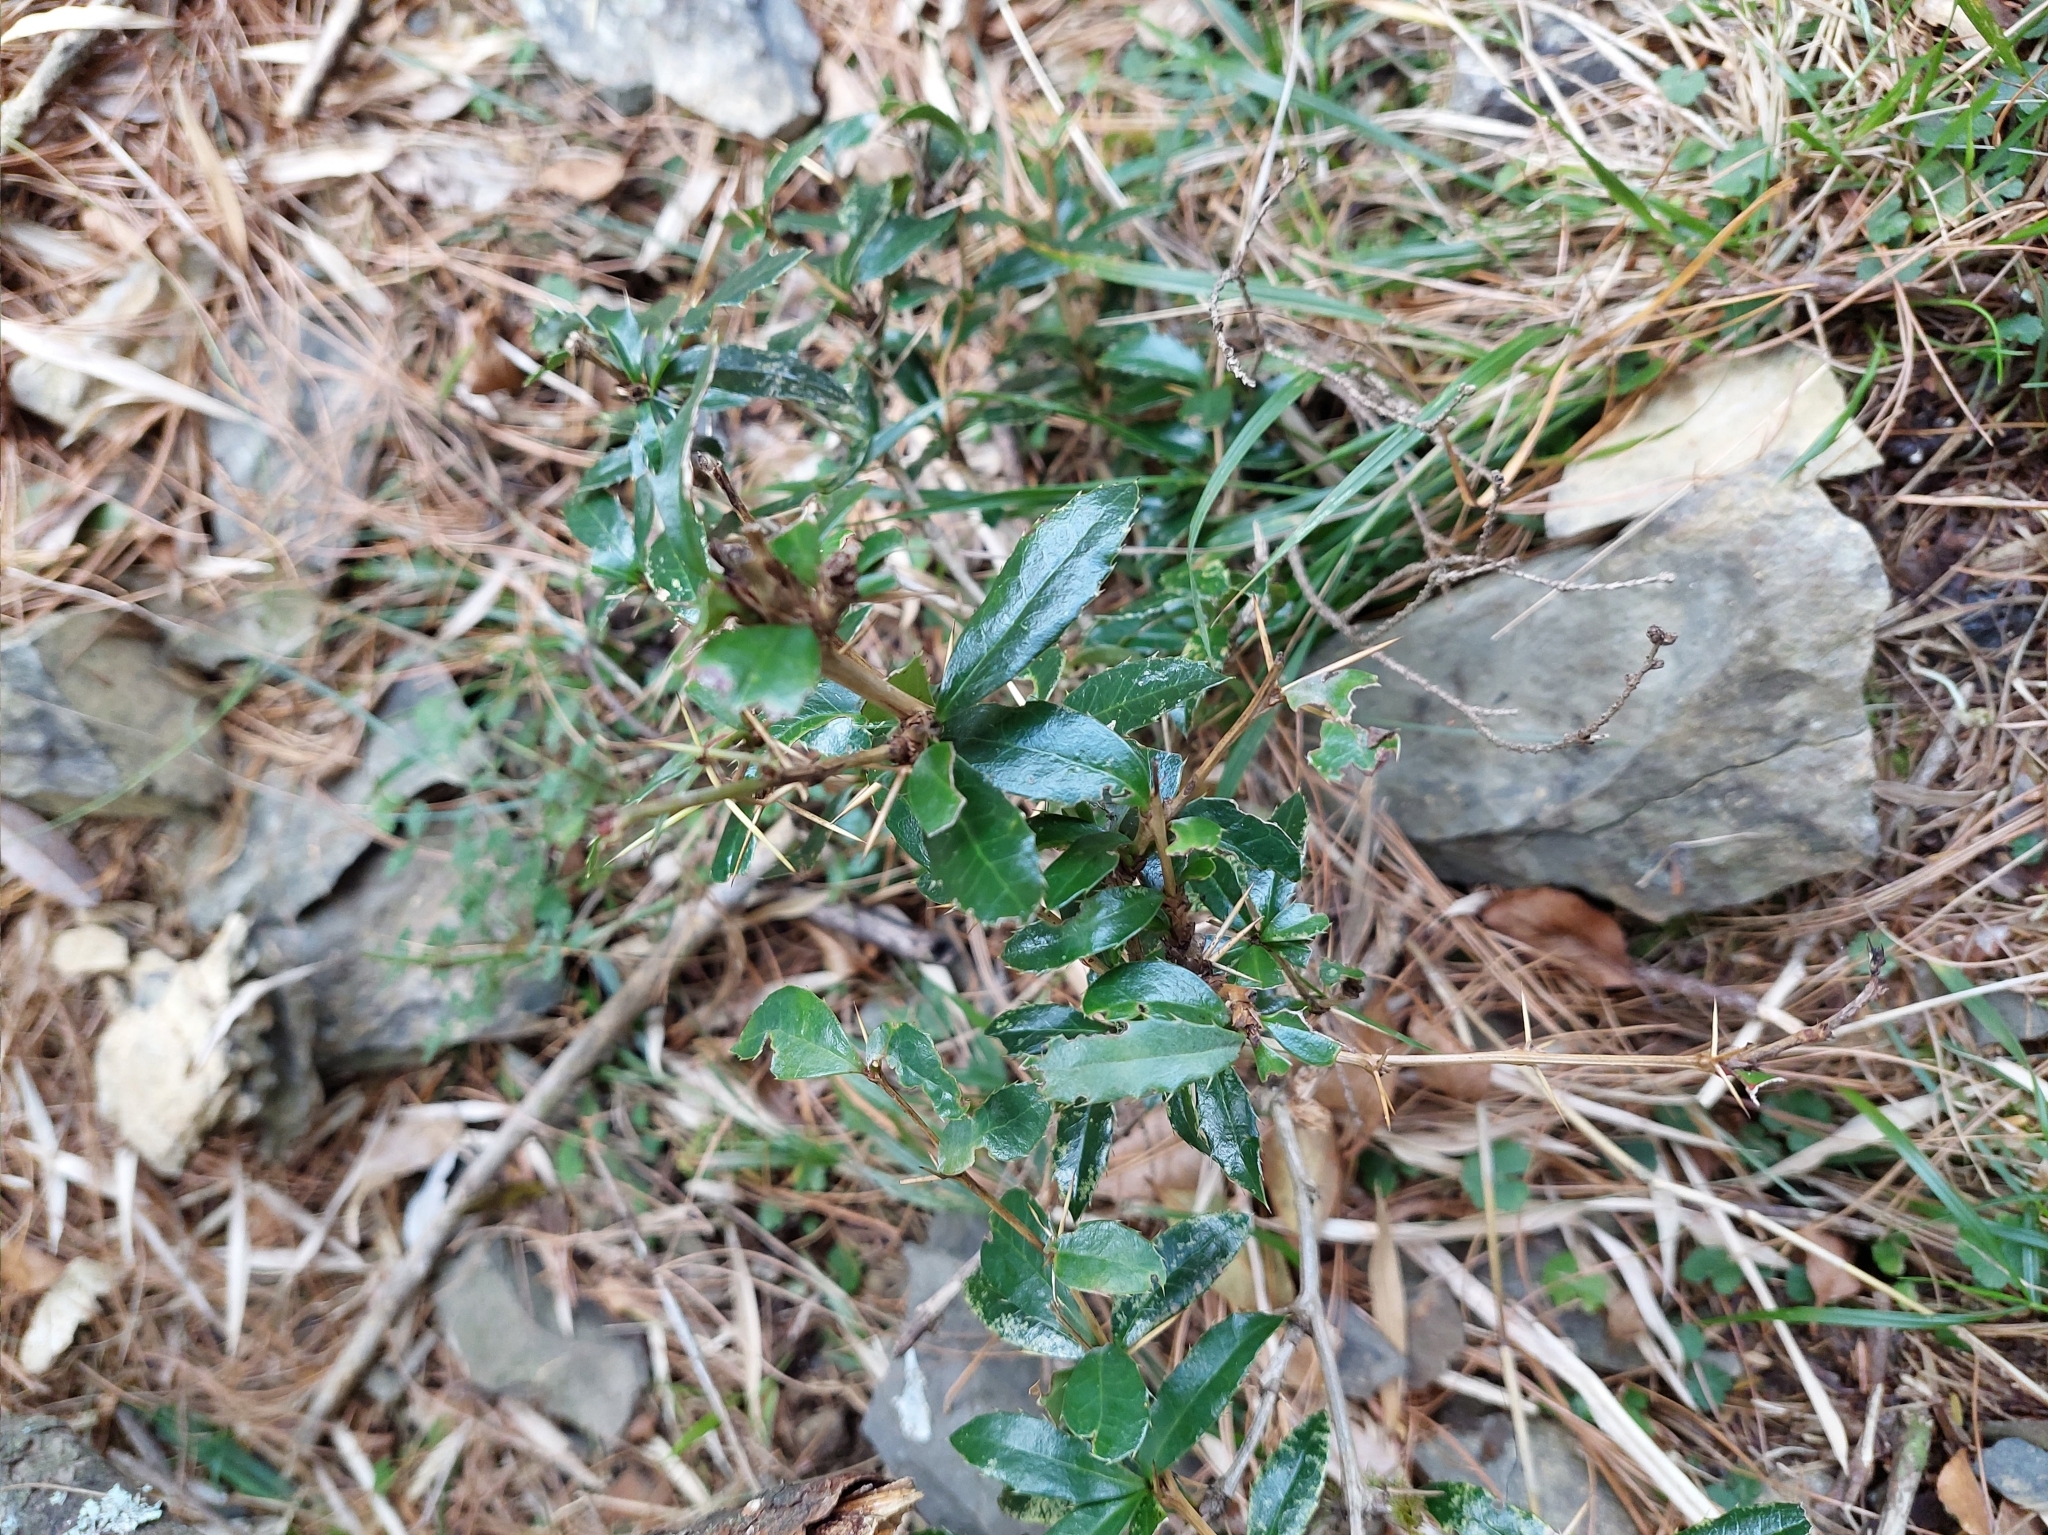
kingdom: Plantae
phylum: Tracheophyta
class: Magnoliopsida
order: Ranunculales
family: Berberidaceae
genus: Berberis
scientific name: Berberis kawakamii
